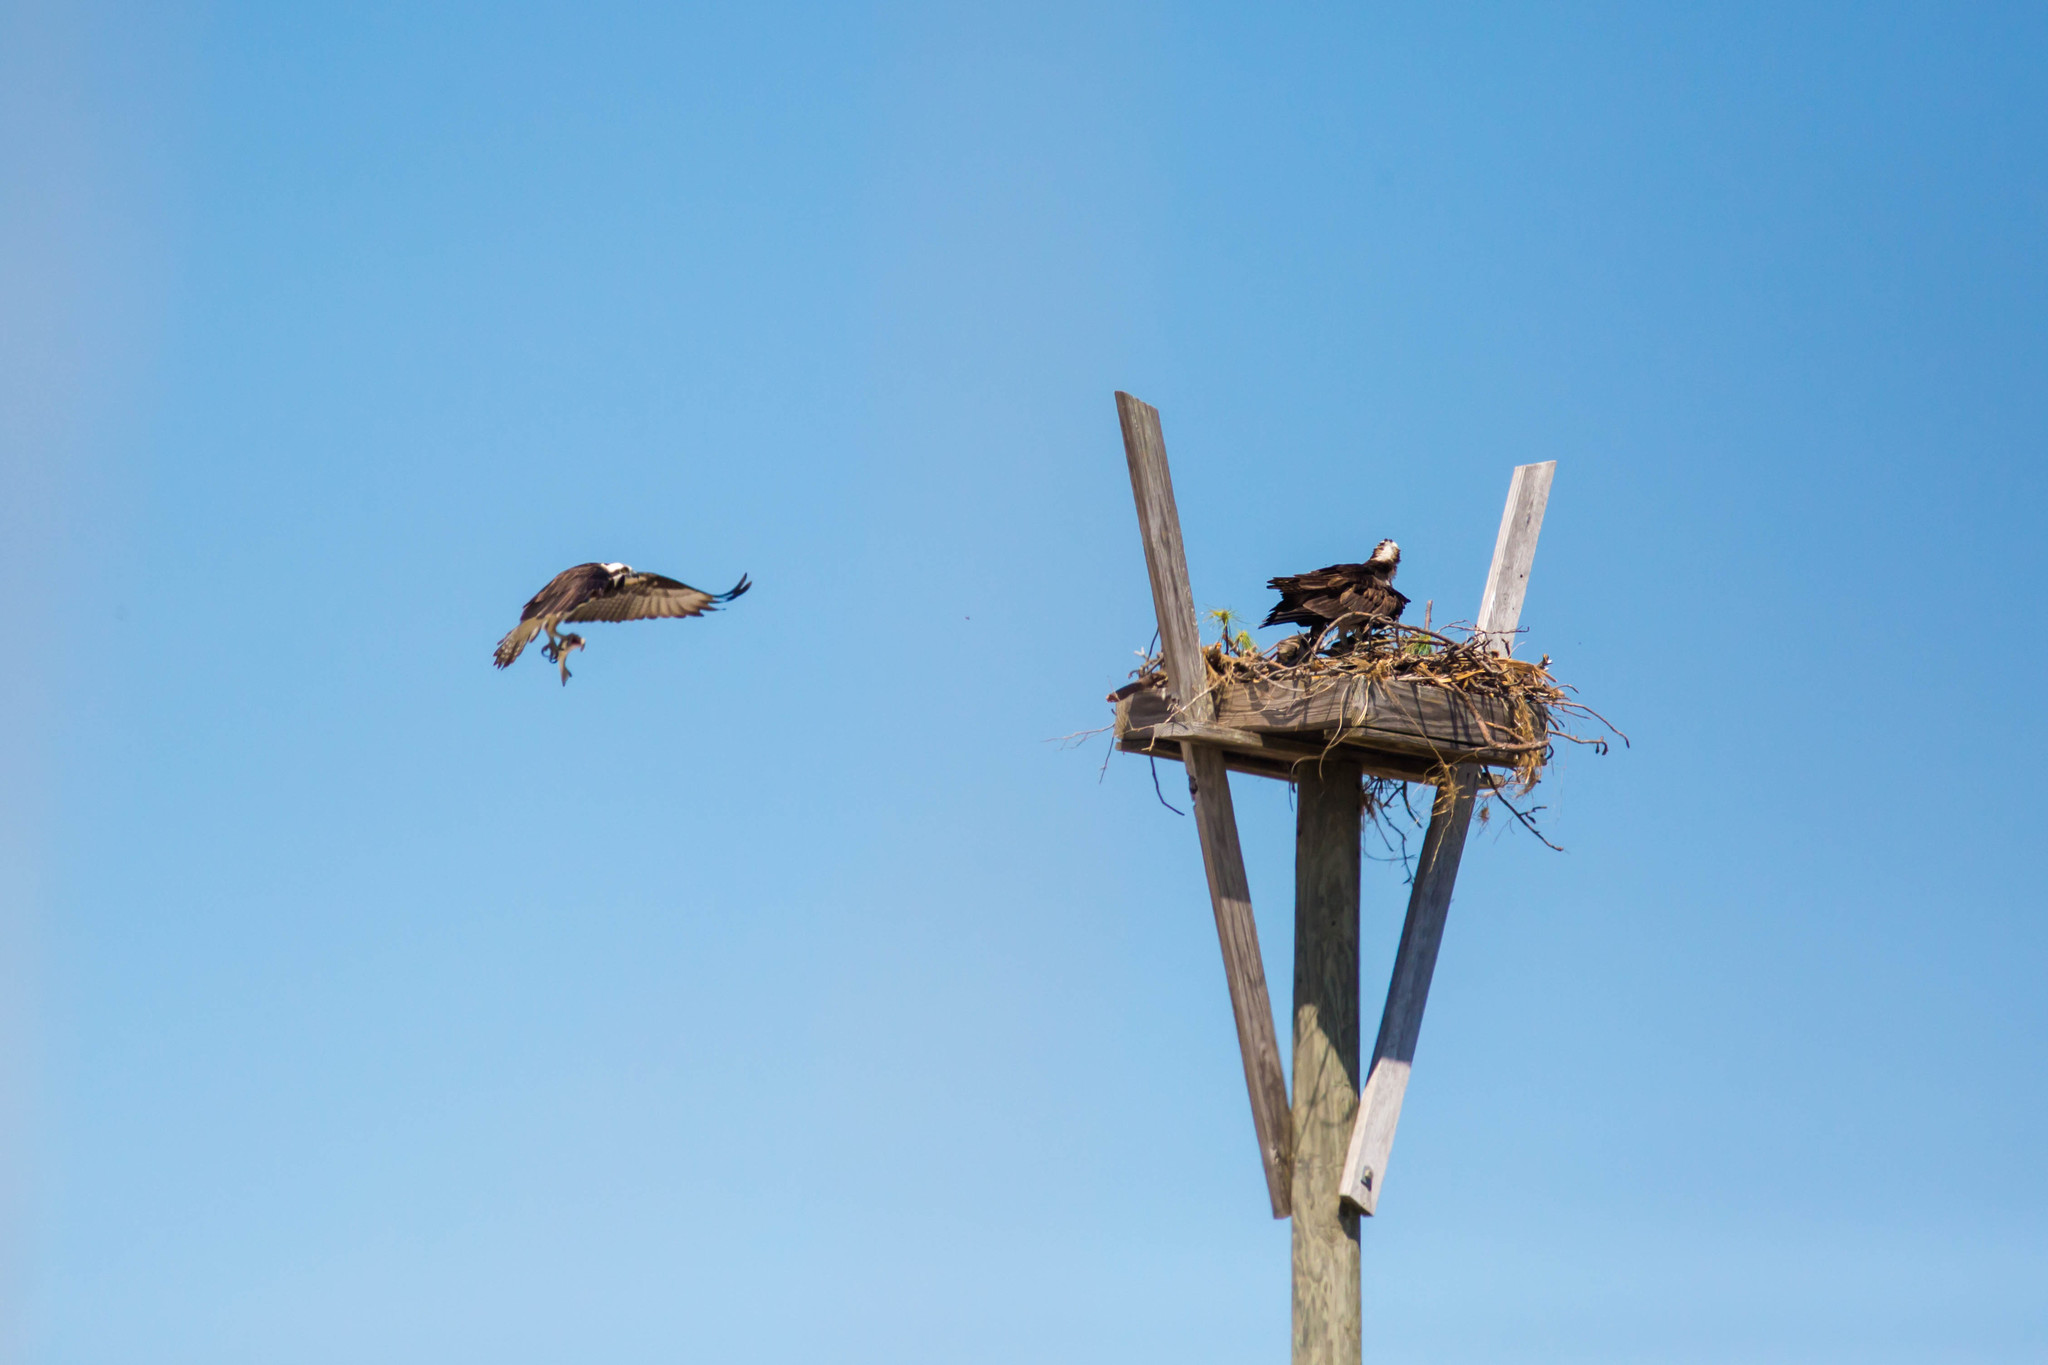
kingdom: Animalia
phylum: Chordata
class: Aves
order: Accipitriformes
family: Pandionidae
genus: Pandion
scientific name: Pandion haliaetus
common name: Osprey
